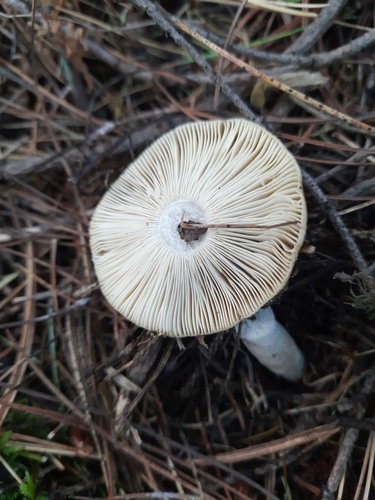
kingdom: Fungi
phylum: Basidiomycota
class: Agaricomycetes
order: Russulales
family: Russulaceae
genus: Russula
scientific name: Russula
